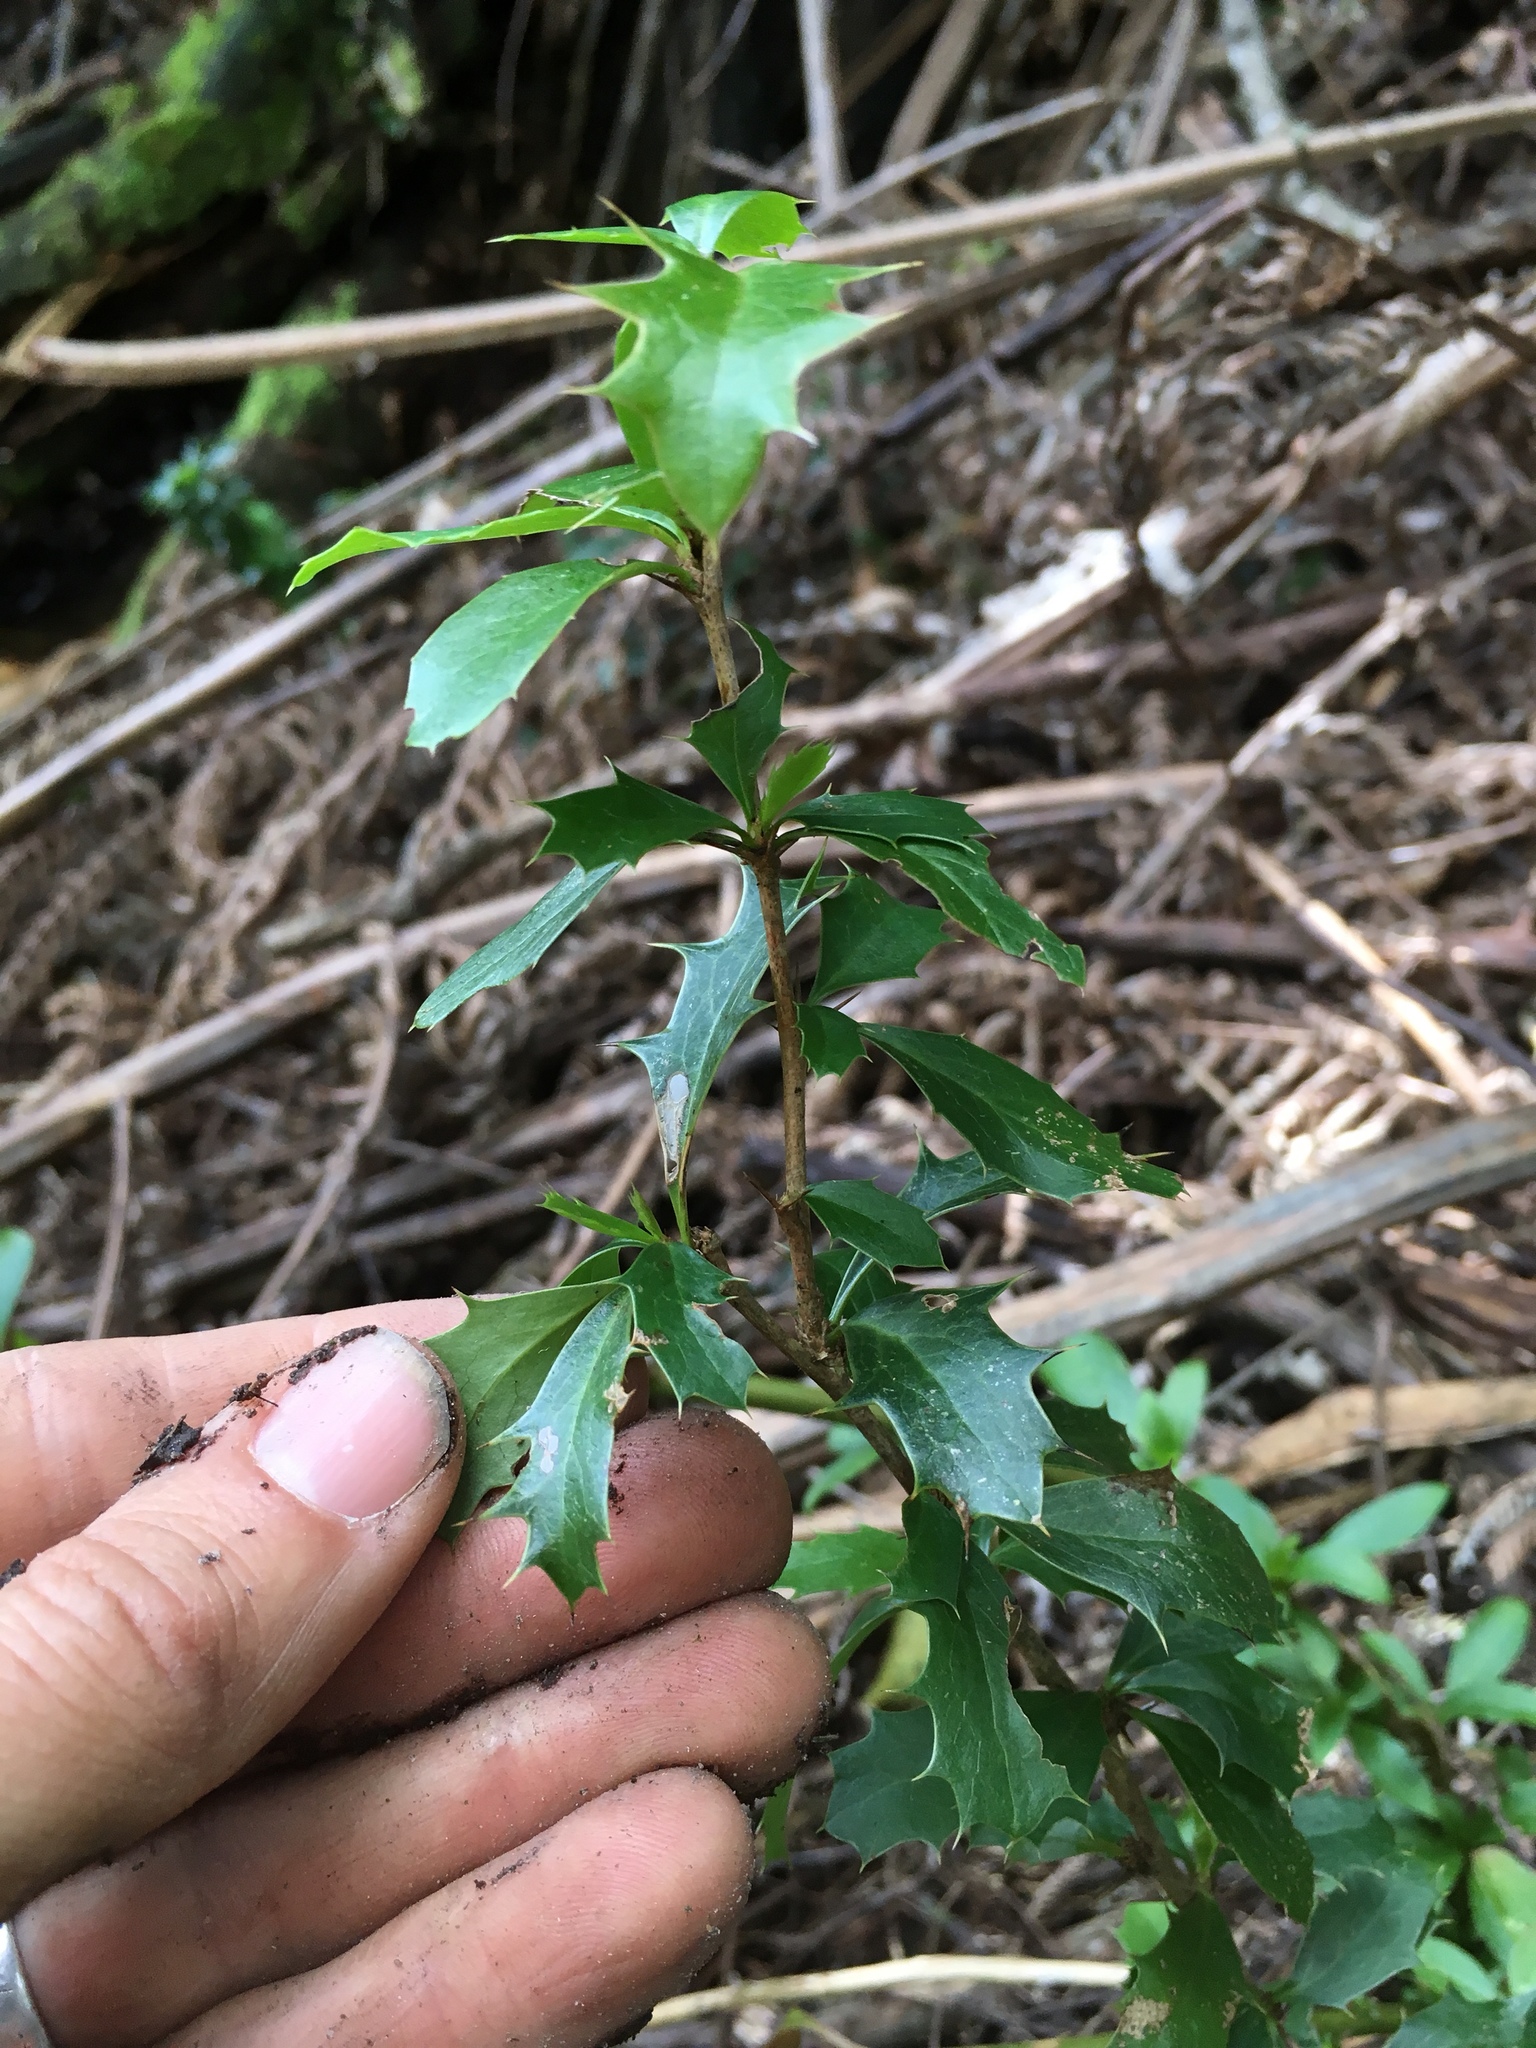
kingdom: Plantae
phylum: Tracheophyta
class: Magnoliopsida
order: Ranunculales
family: Berberidaceae
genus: Berberis
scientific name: Berberis glaucocarpa
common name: Great barberry
